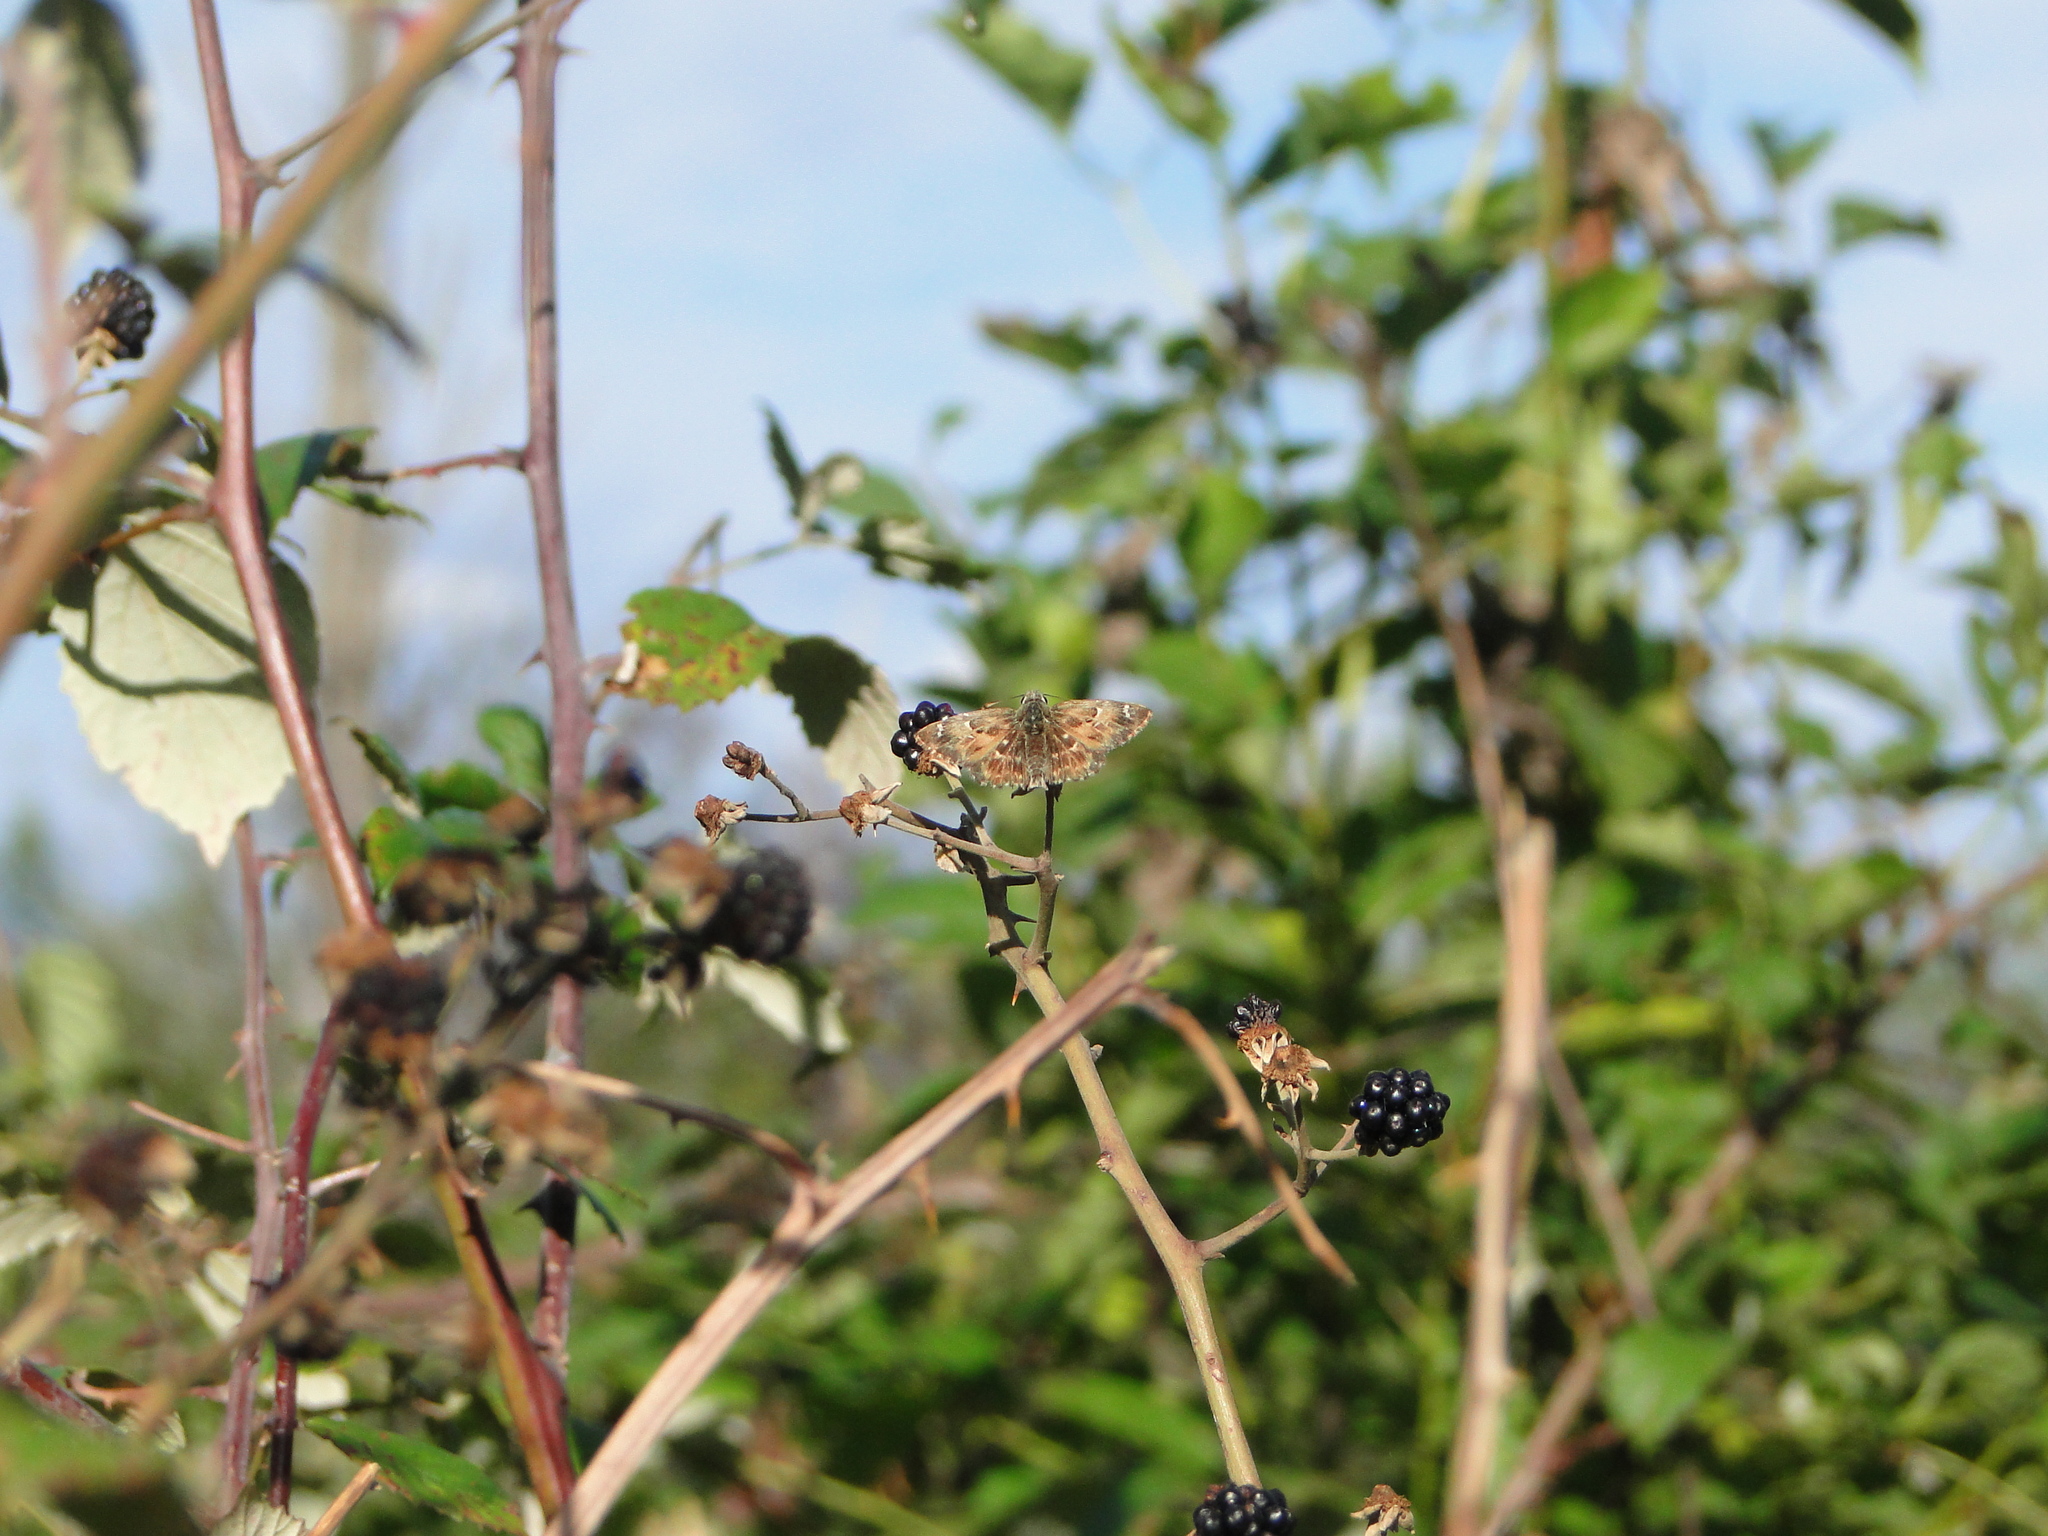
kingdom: Animalia
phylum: Arthropoda
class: Insecta
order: Lepidoptera
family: Hesperiidae
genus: Carcharodus
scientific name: Carcharodus alceae
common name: Mallow skipper
